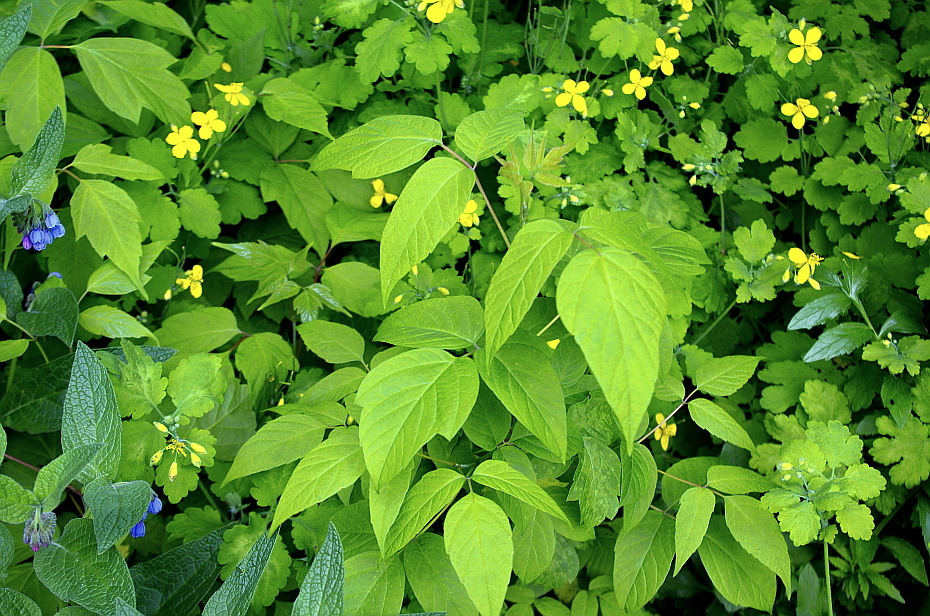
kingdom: Plantae
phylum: Tracheophyta
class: Magnoliopsida
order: Sapindales
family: Sapindaceae
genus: Acer
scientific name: Acer negundo
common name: Ashleaf maple
